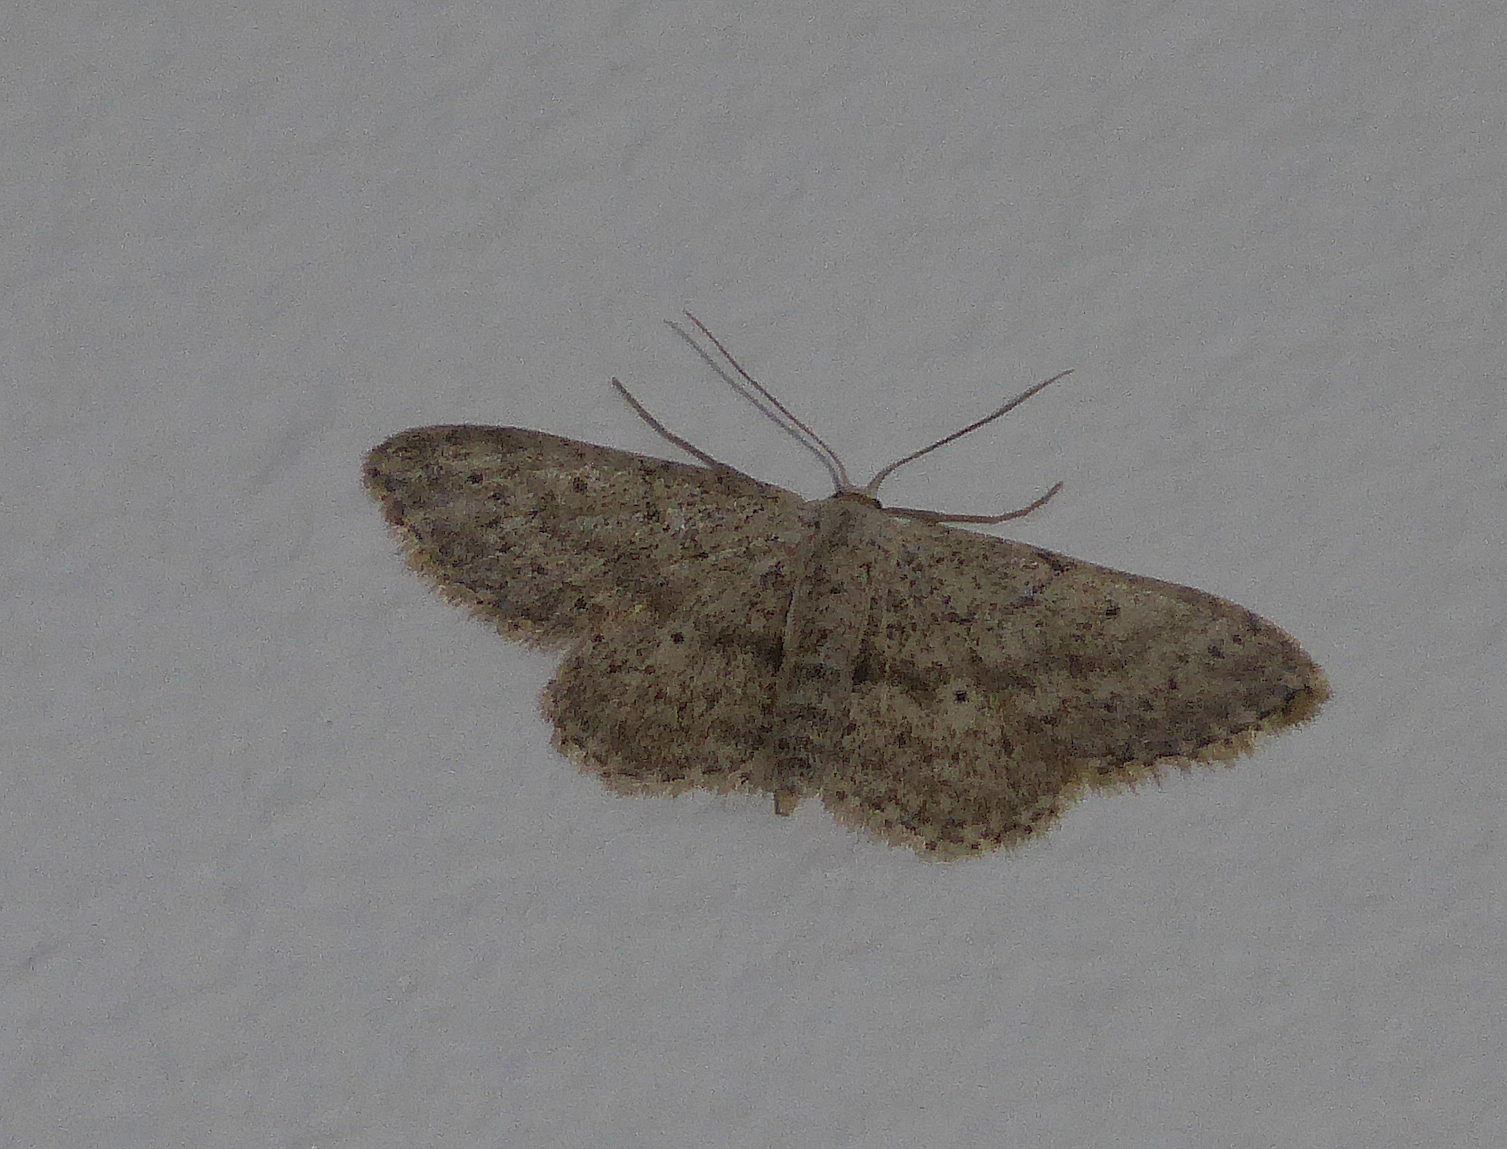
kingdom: Animalia
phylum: Arthropoda
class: Insecta
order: Lepidoptera
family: Geometridae
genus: Idaea
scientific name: Idaea seriata
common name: Small dusty wave
